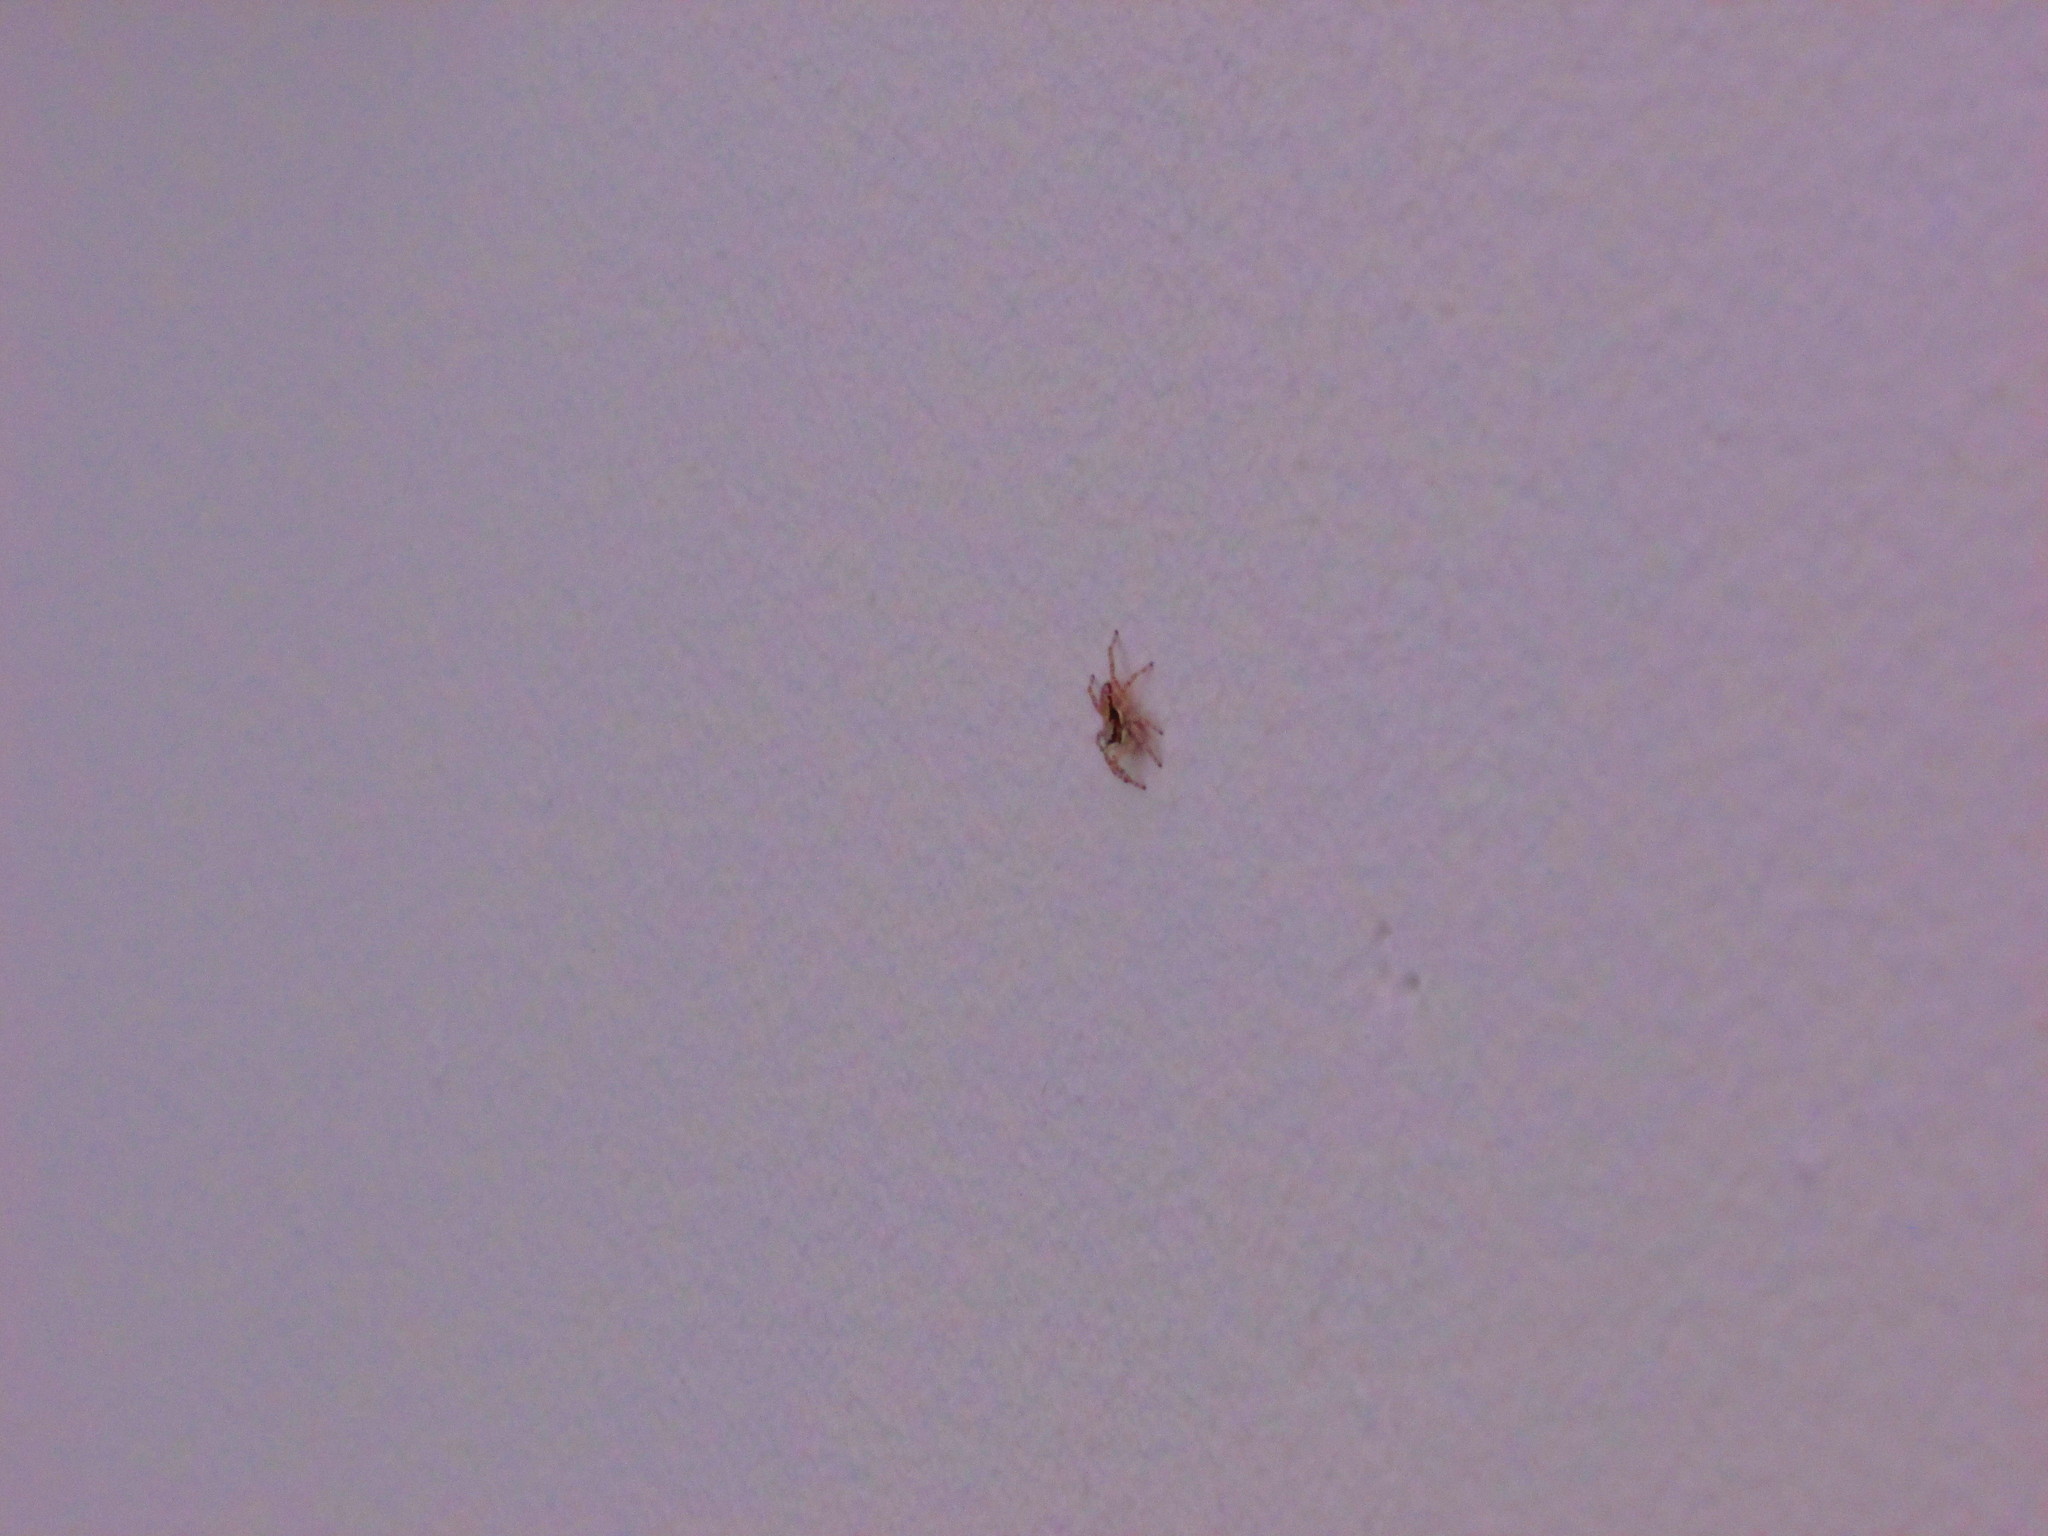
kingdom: Animalia
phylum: Arthropoda
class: Arachnida
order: Araneae
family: Salticidae
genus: Menemerus
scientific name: Menemerus bivittatus
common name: Gray wall jumper
